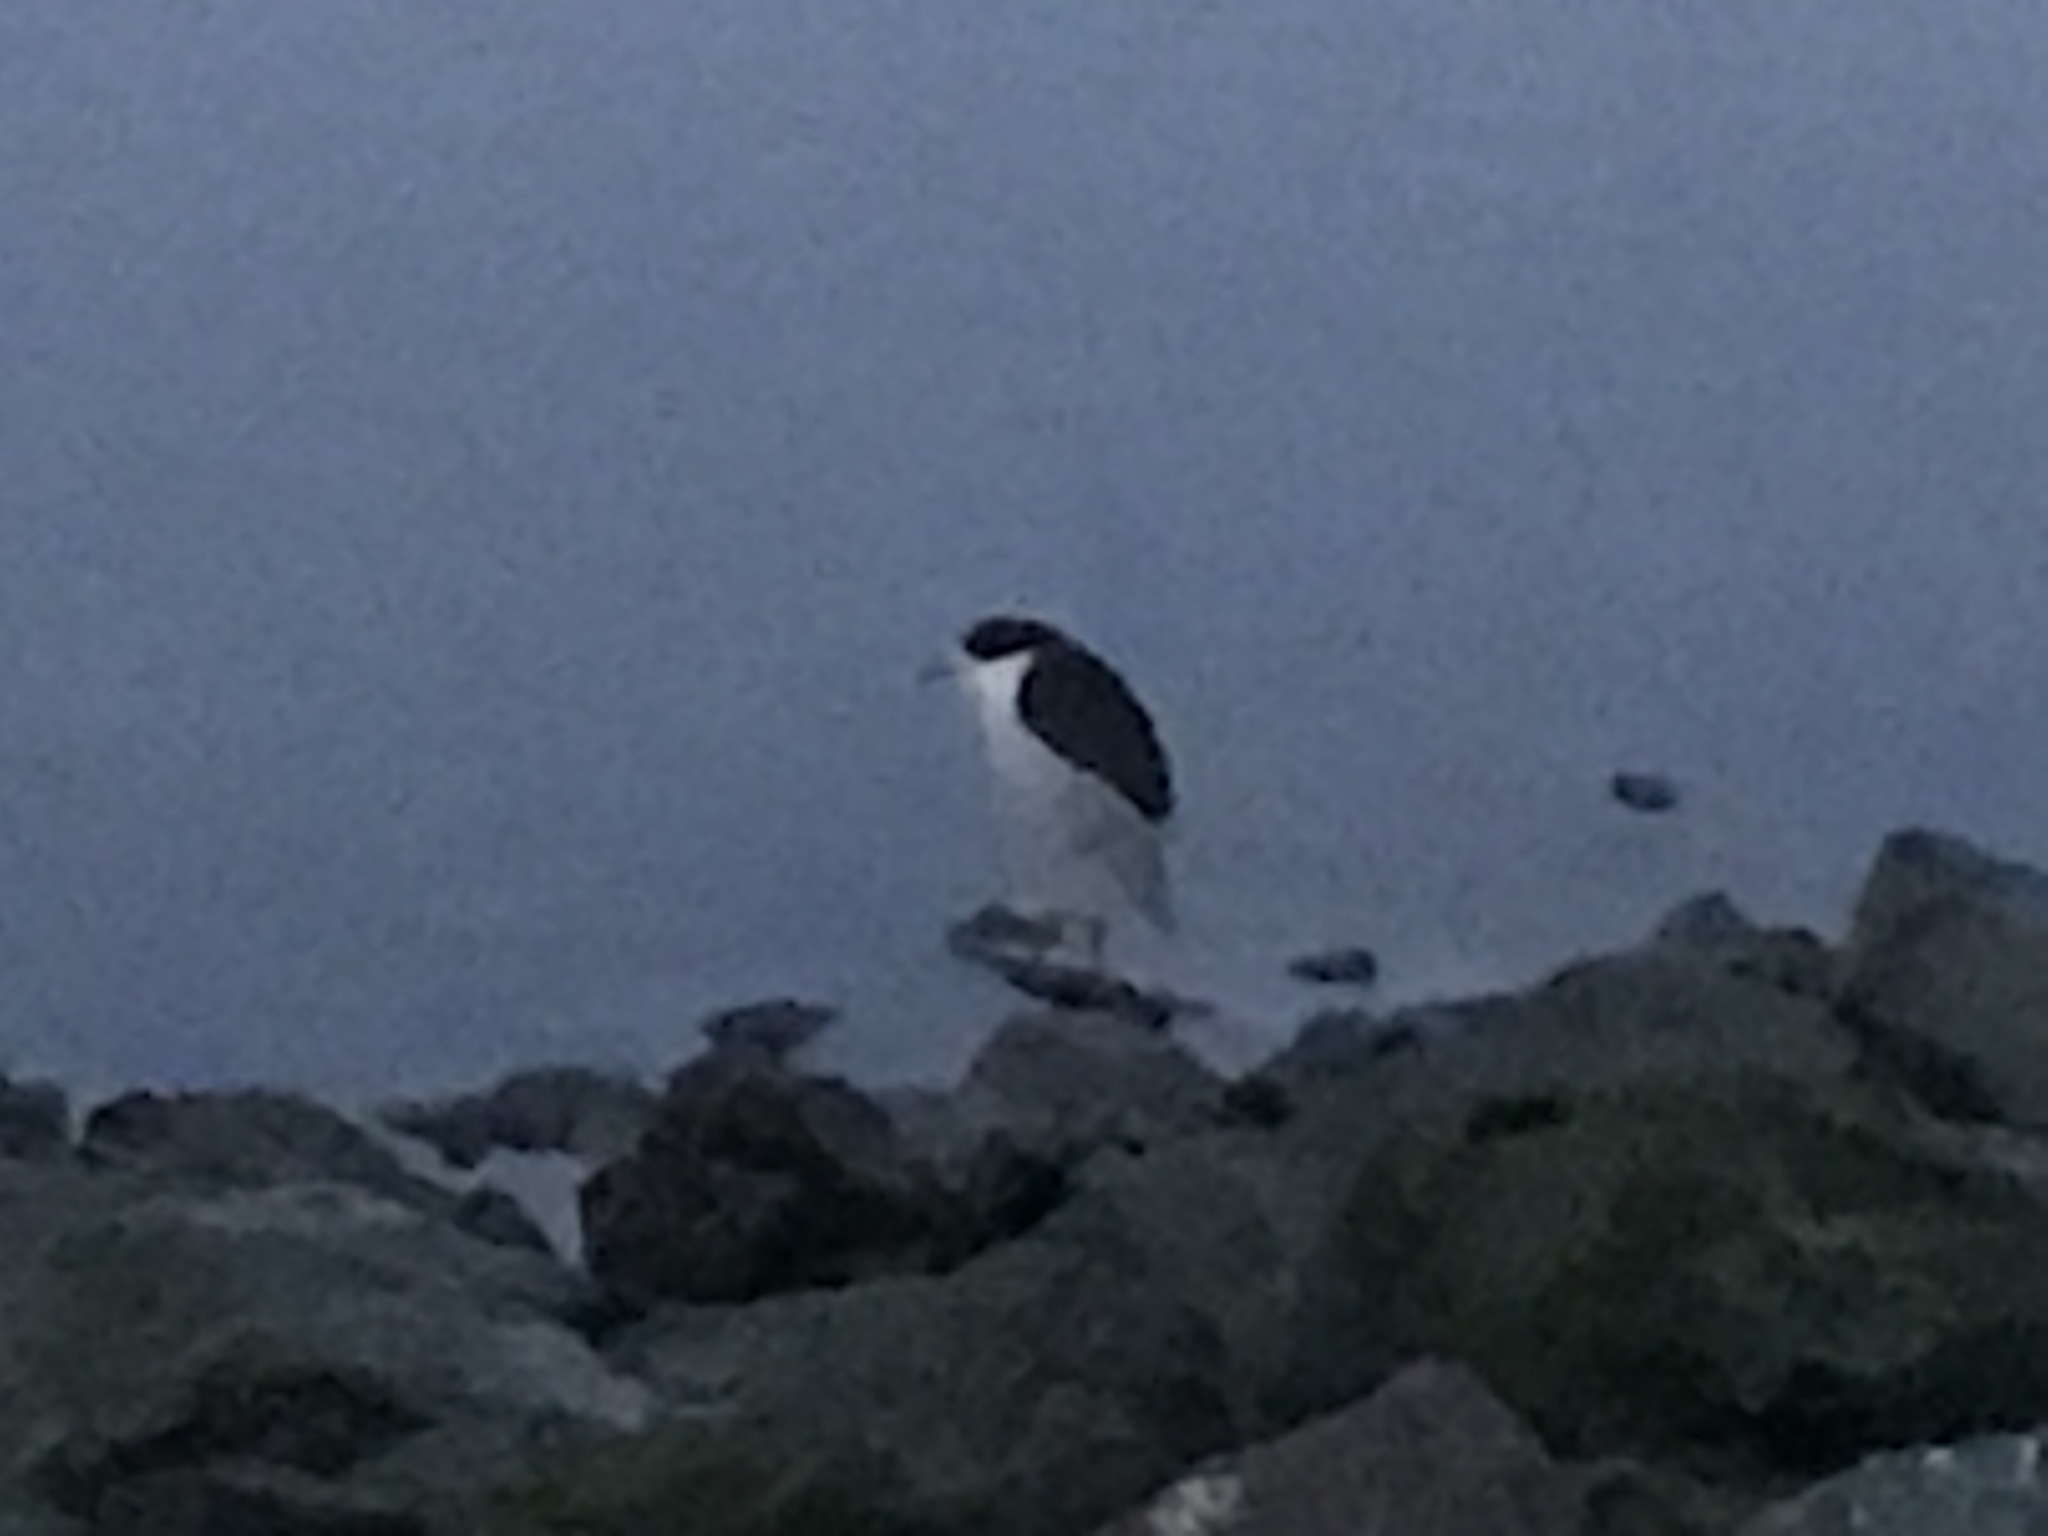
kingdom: Animalia
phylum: Chordata
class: Aves
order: Pelecaniformes
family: Ardeidae
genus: Nycticorax
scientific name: Nycticorax nycticorax
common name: Black-crowned night heron
